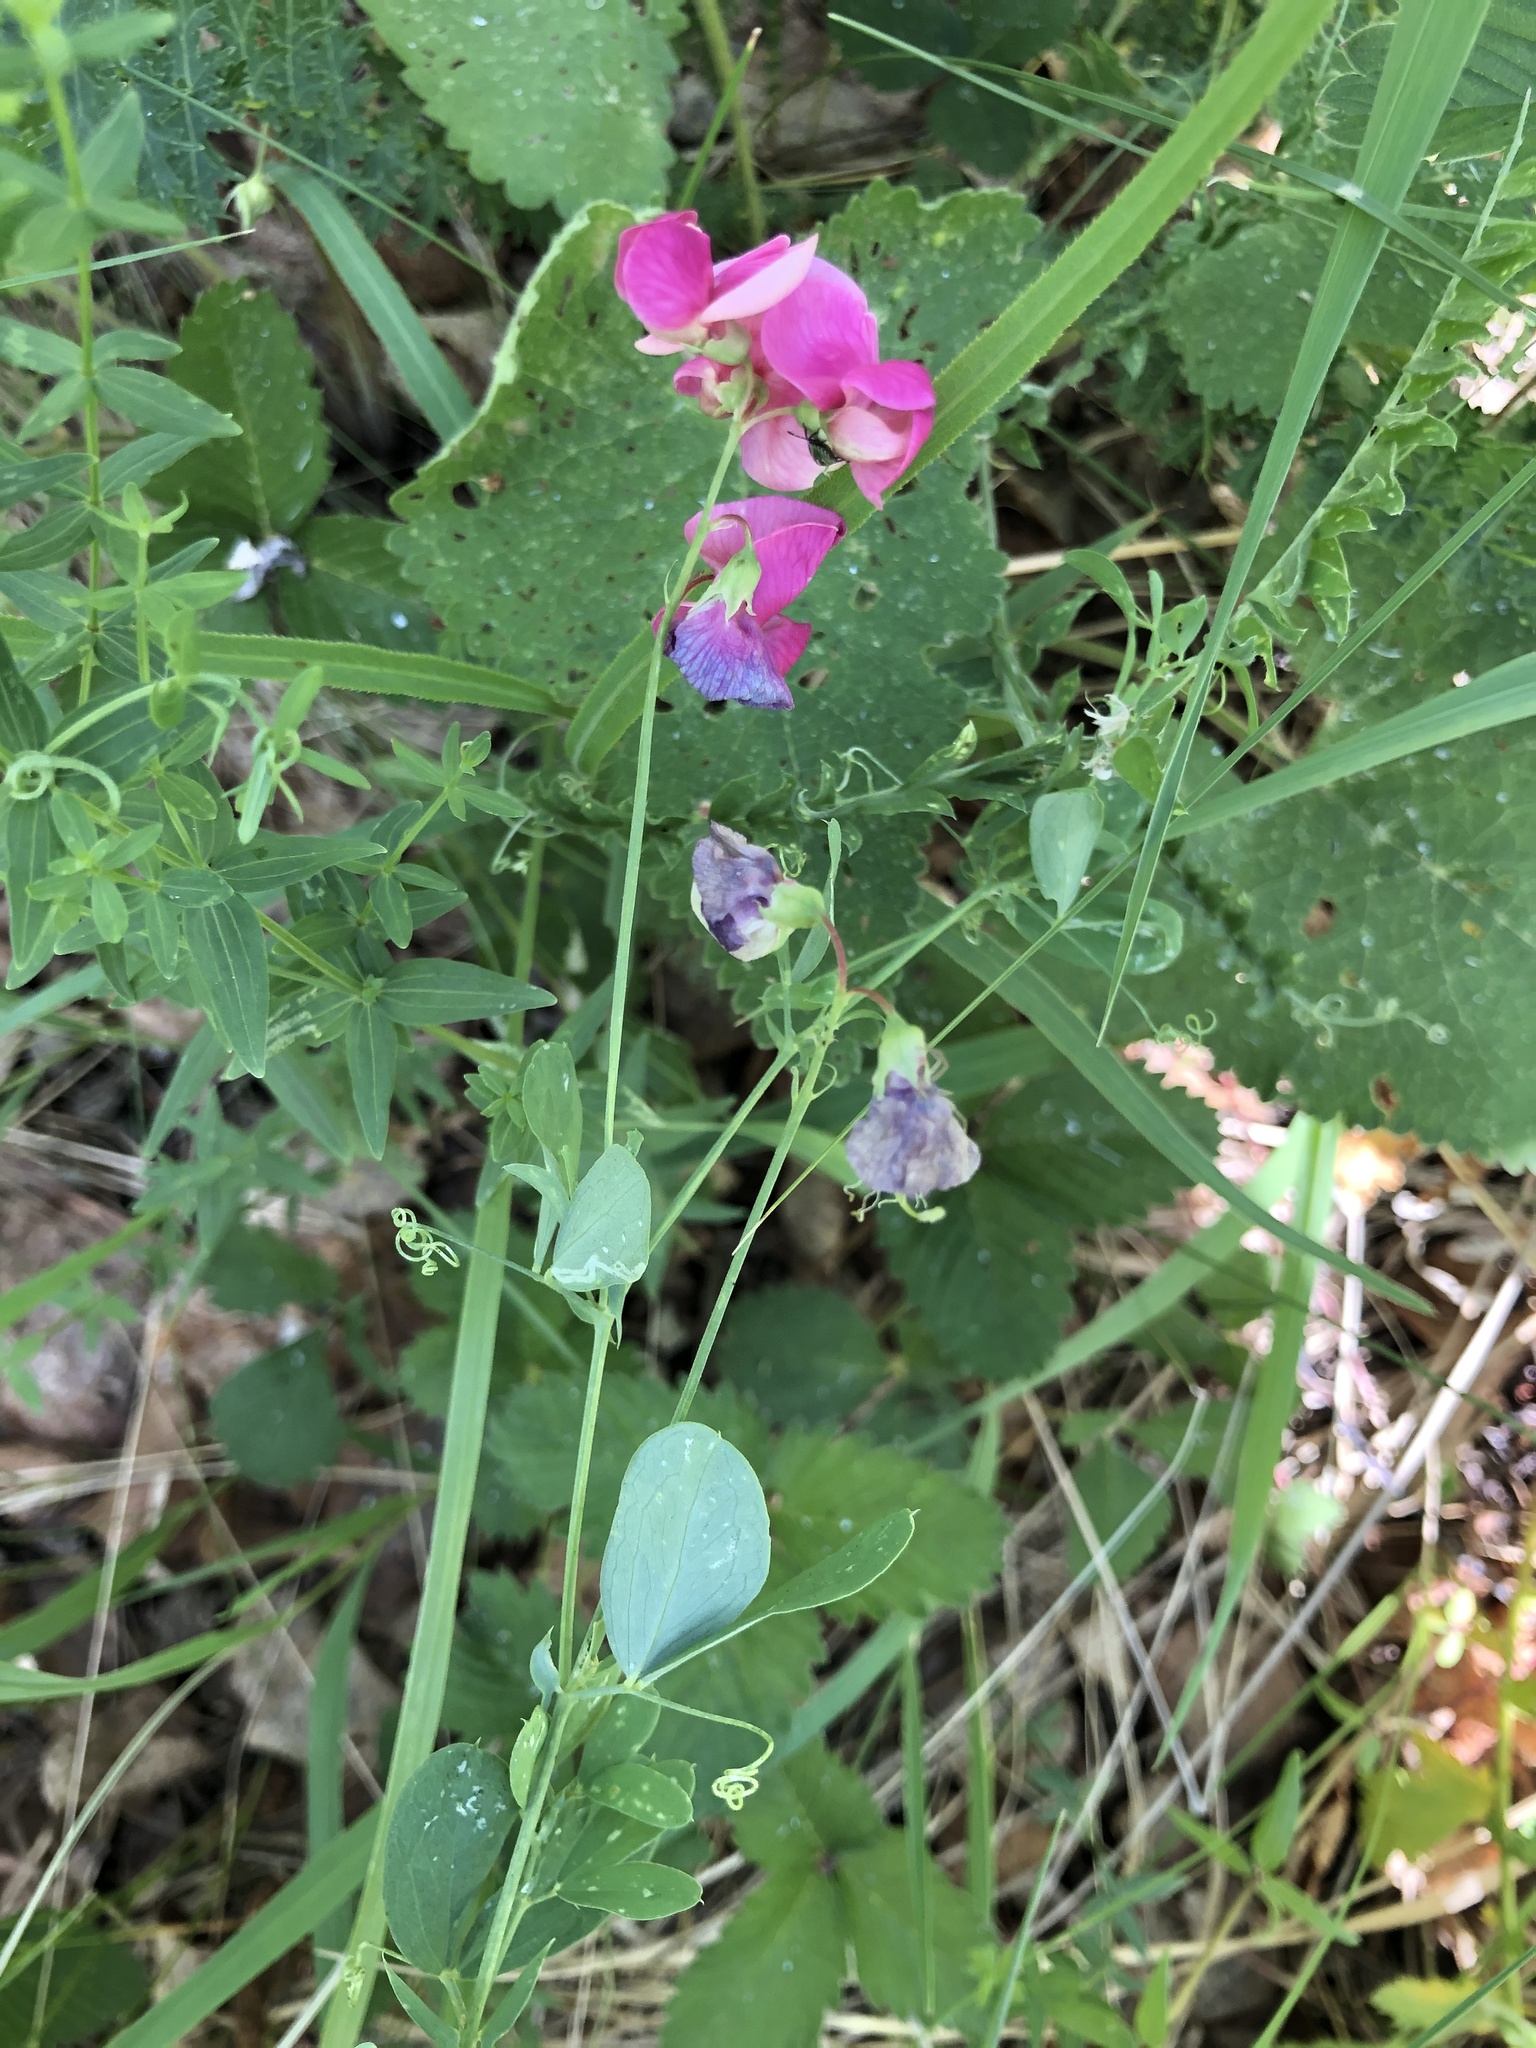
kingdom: Plantae
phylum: Tracheophyta
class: Magnoliopsida
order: Fabales
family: Fabaceae
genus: Lathyrus
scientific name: Lathyrus tuberosus
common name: Tuberous pea
